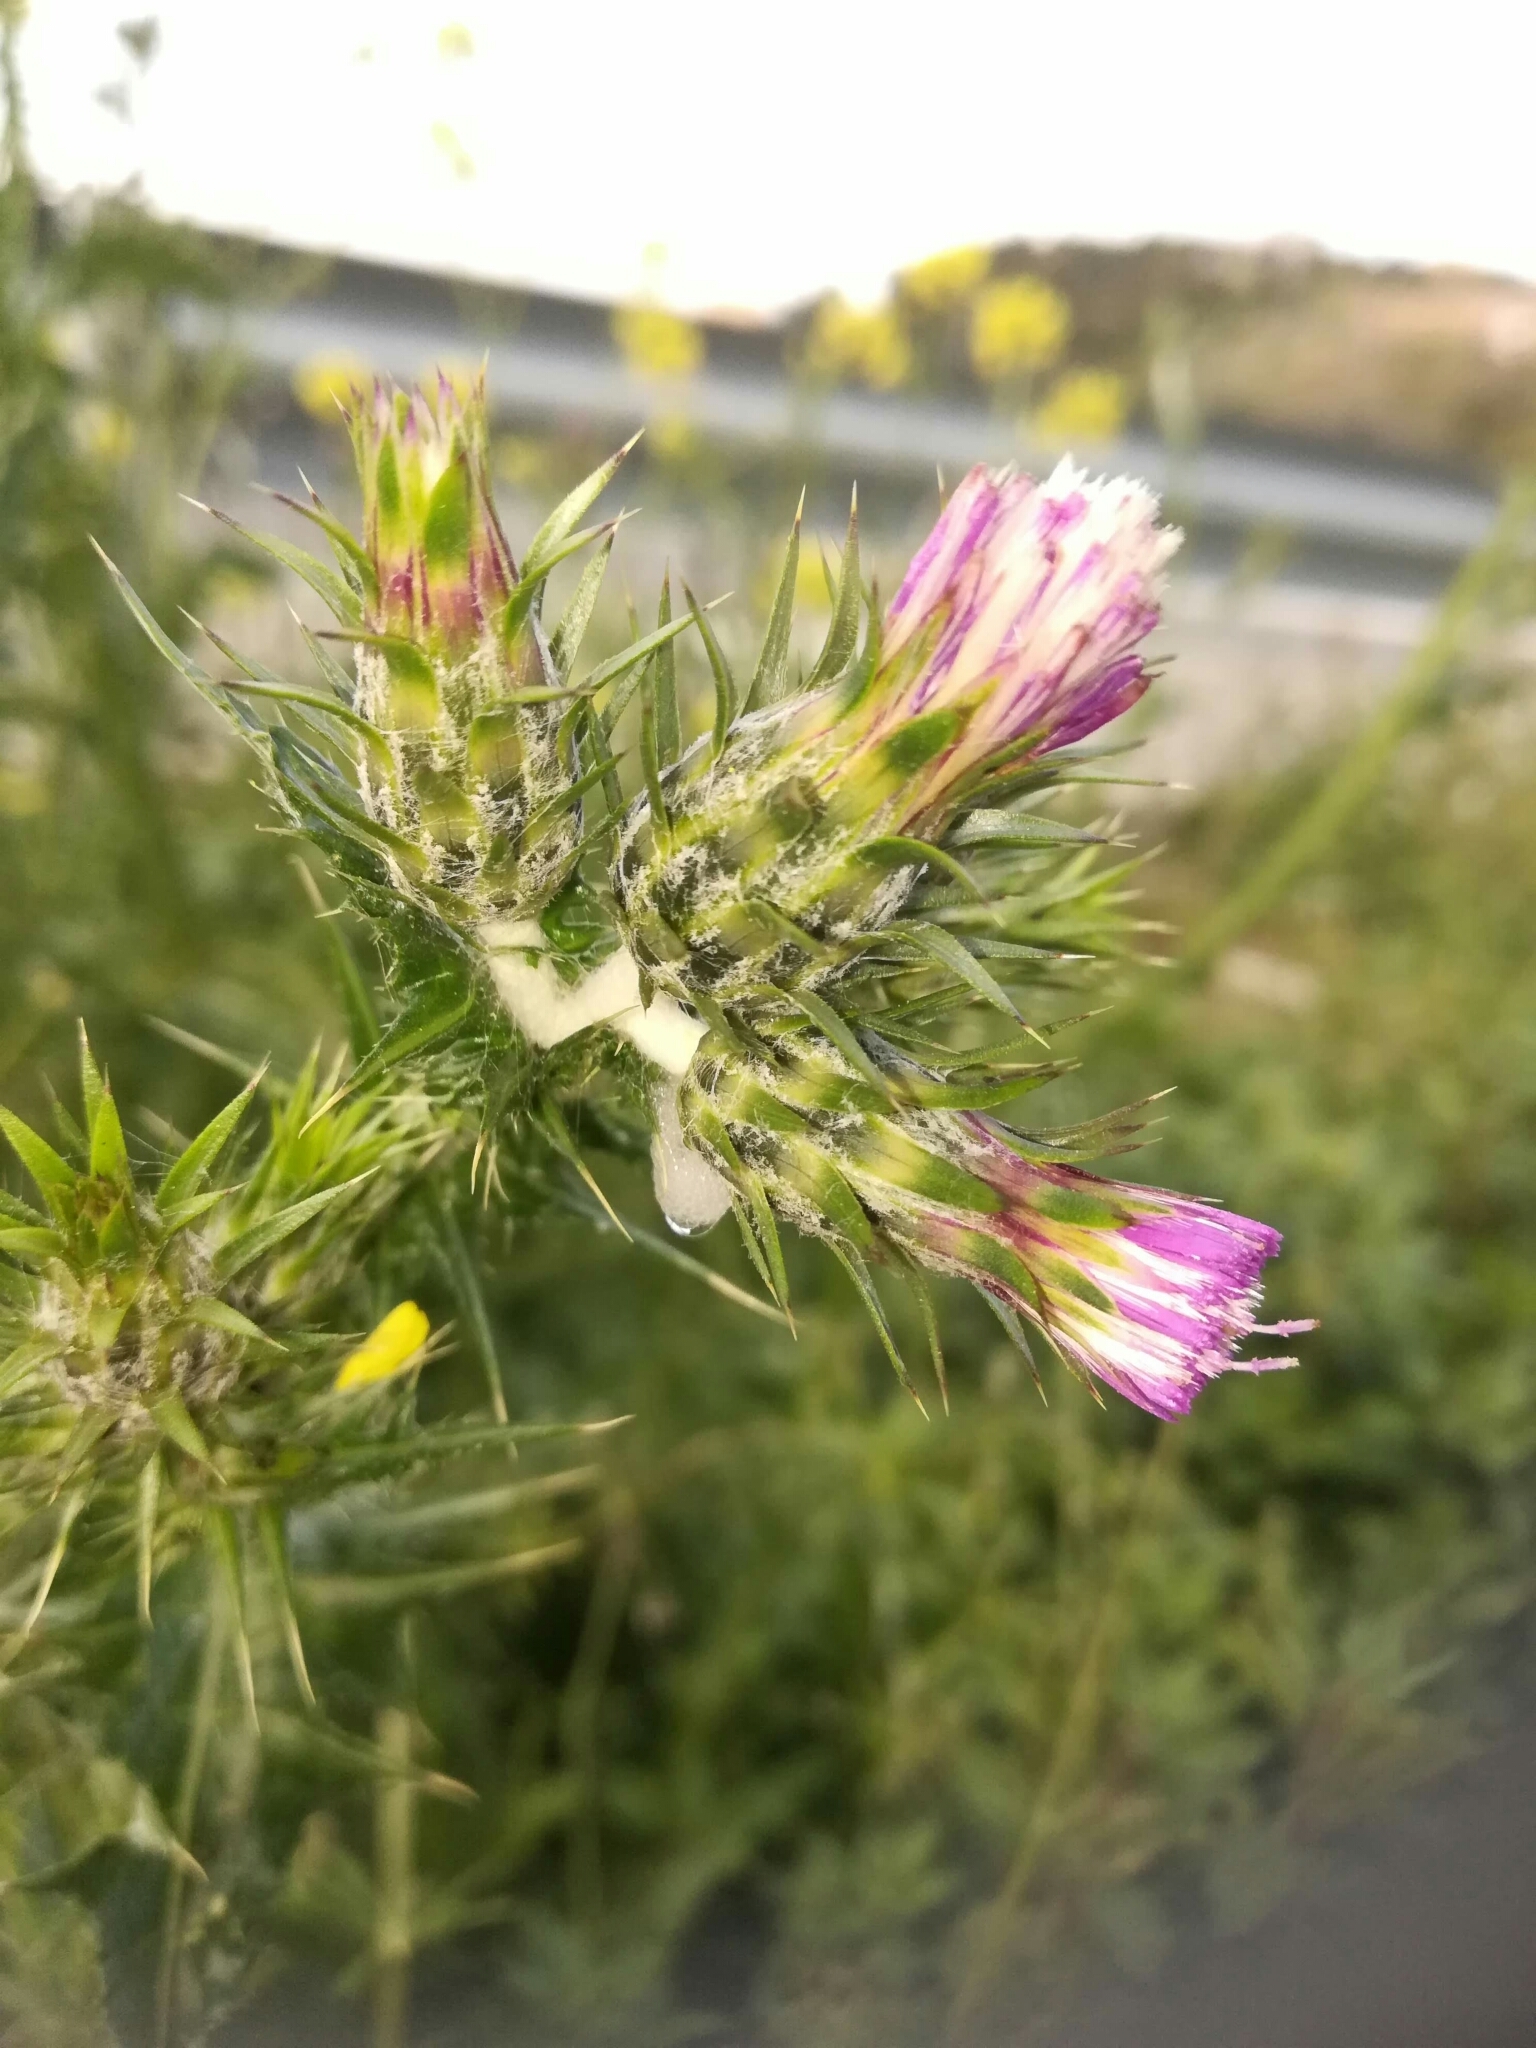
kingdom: Plantae
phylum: Tracheophyta
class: Magnoliopsida
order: Asterales
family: Asteraceae
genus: Carduus
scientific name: Carduus pycnocephalus
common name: Plymouth thistle
